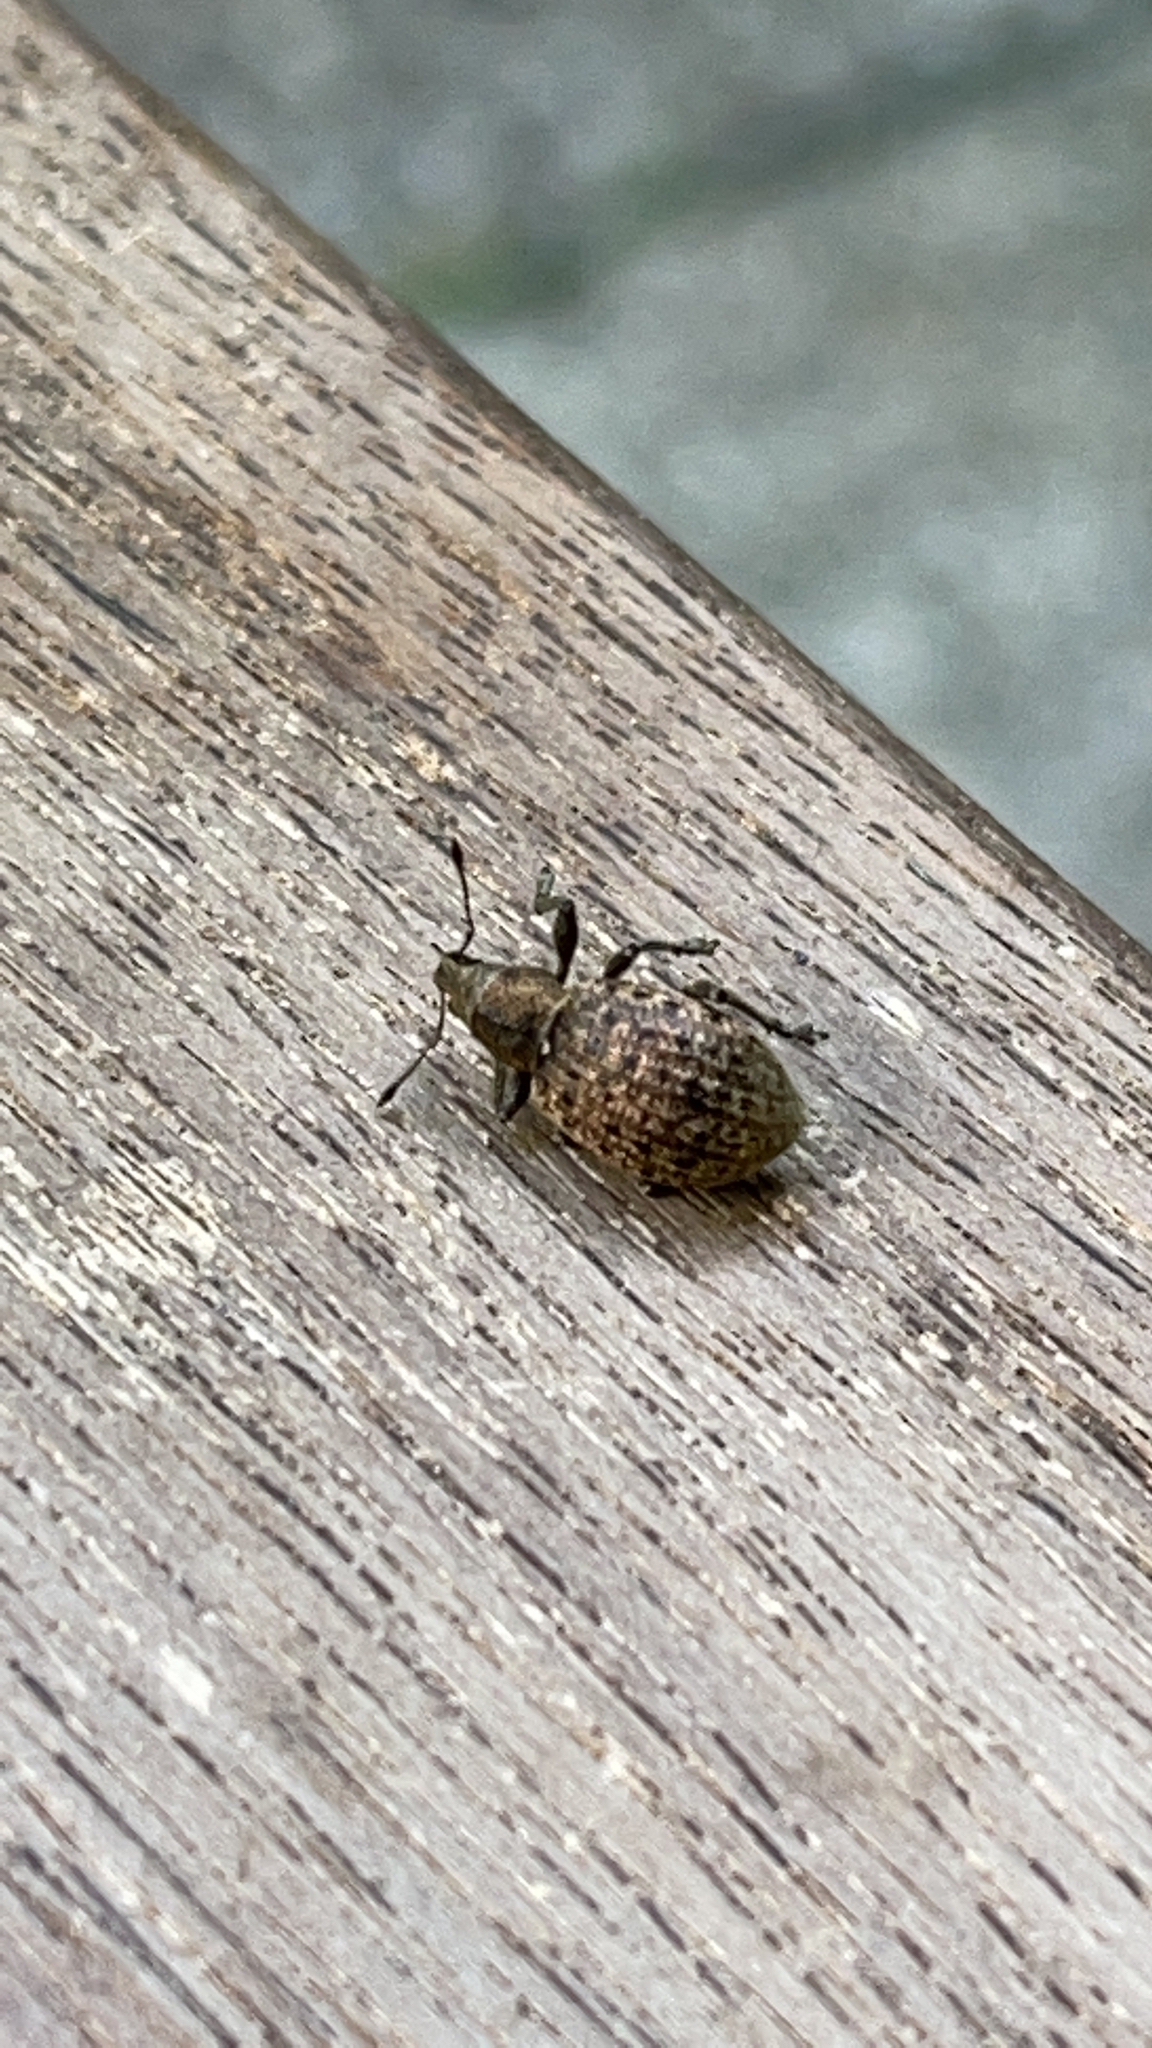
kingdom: Animalia
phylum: Arthropoda
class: Insecta
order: Coleoptera
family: Curculionidae
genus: Liophloeus
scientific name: Liophloeus tessulatus
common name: Weevil
